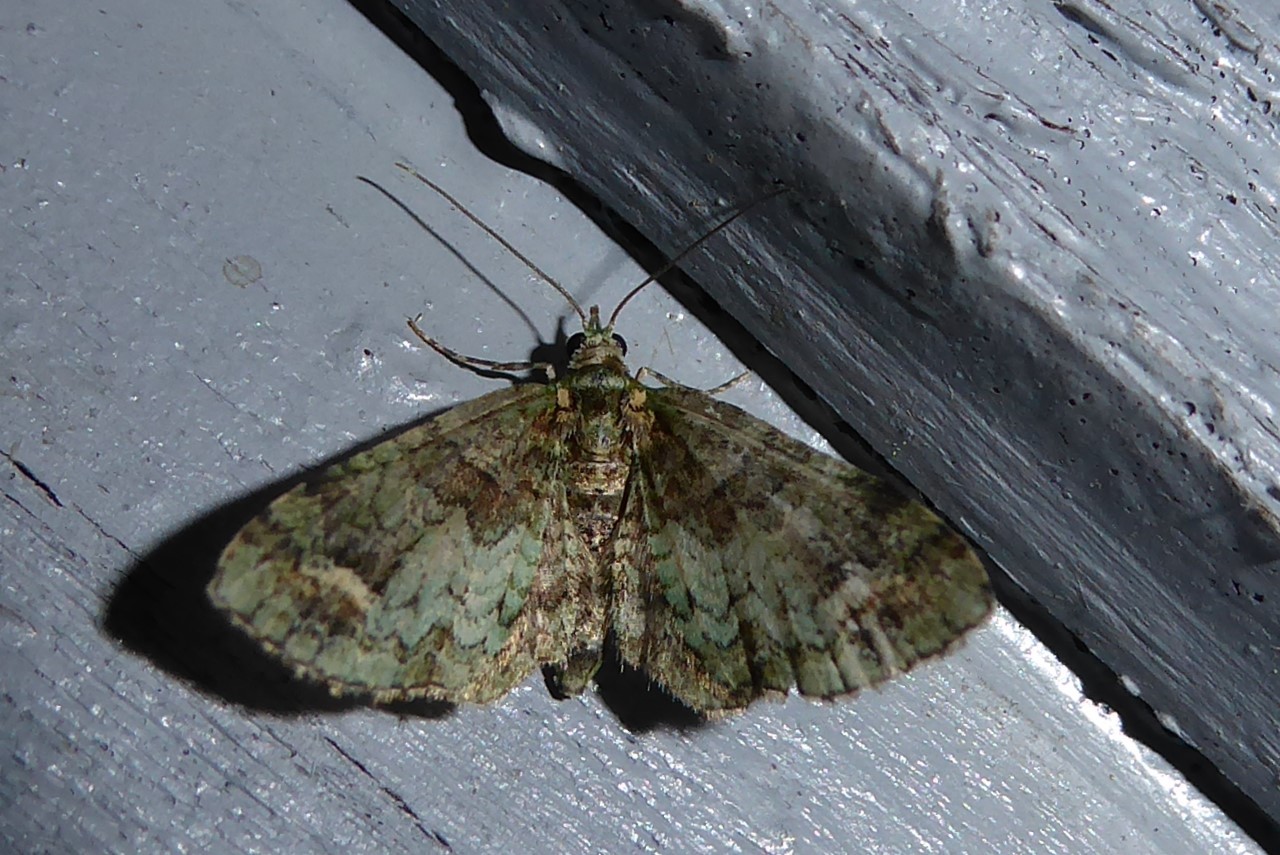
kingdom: Animalia
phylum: Arthropoda
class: Insecta
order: Lepidoptera
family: Geometridae
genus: Idaea
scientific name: Idaea mutanda
